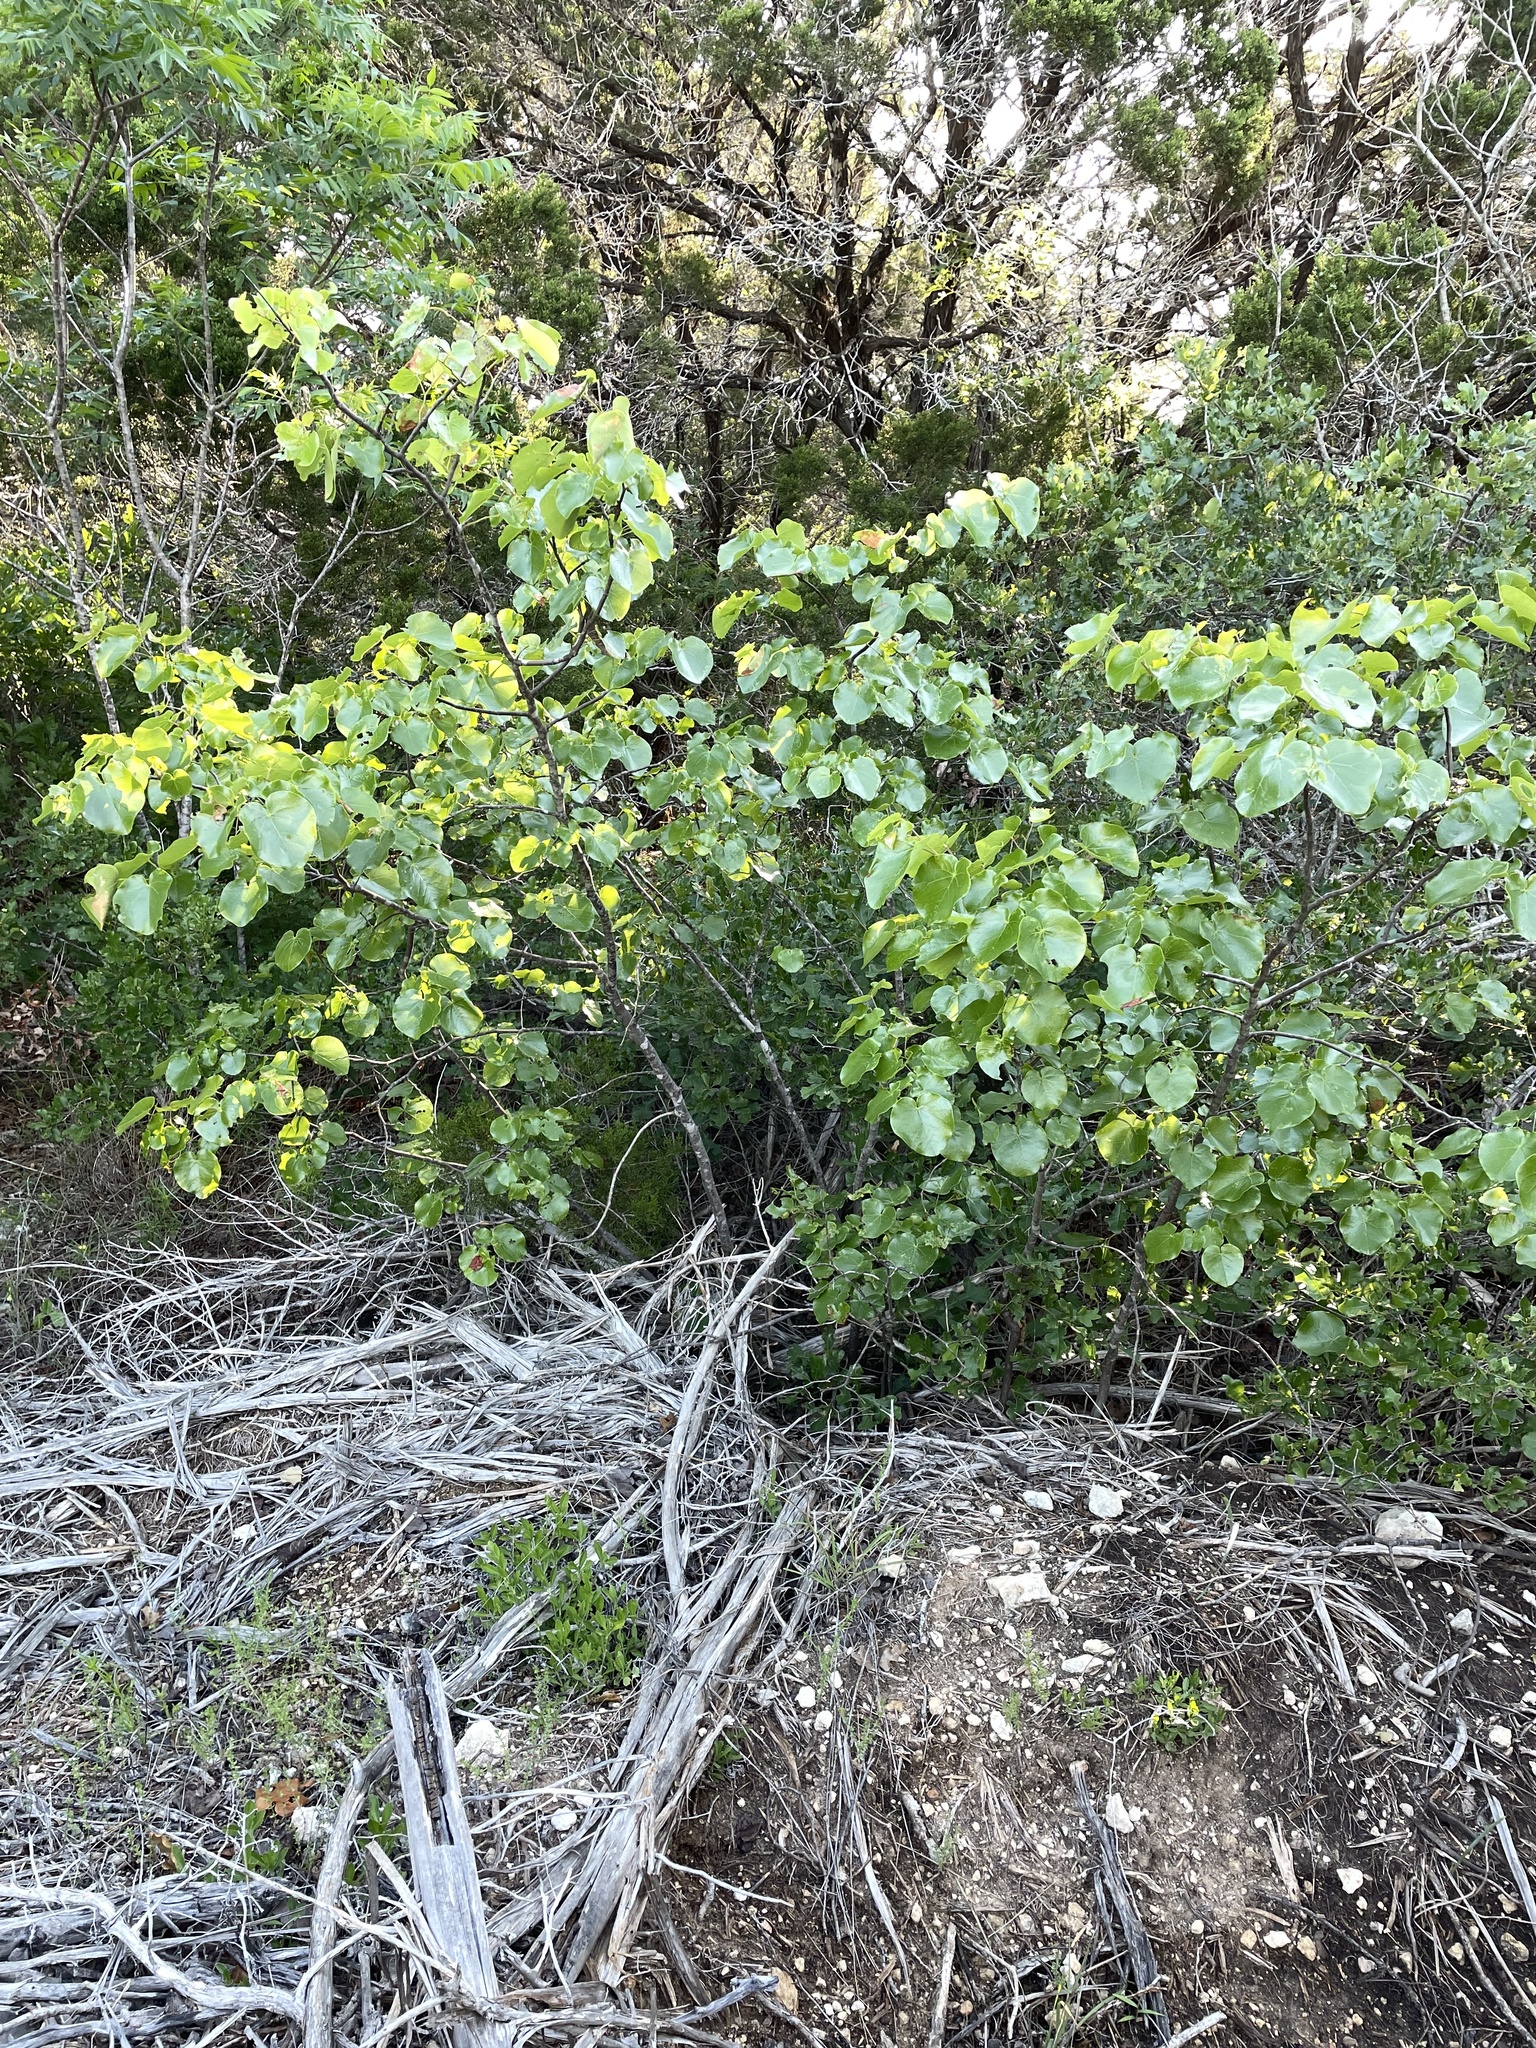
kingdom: Plantae
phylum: Tracheophyta
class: Magnoliopsida
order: Fabales
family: Fabaceae
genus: Cercis
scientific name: Cercis canadensis
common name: Eastern redbud
